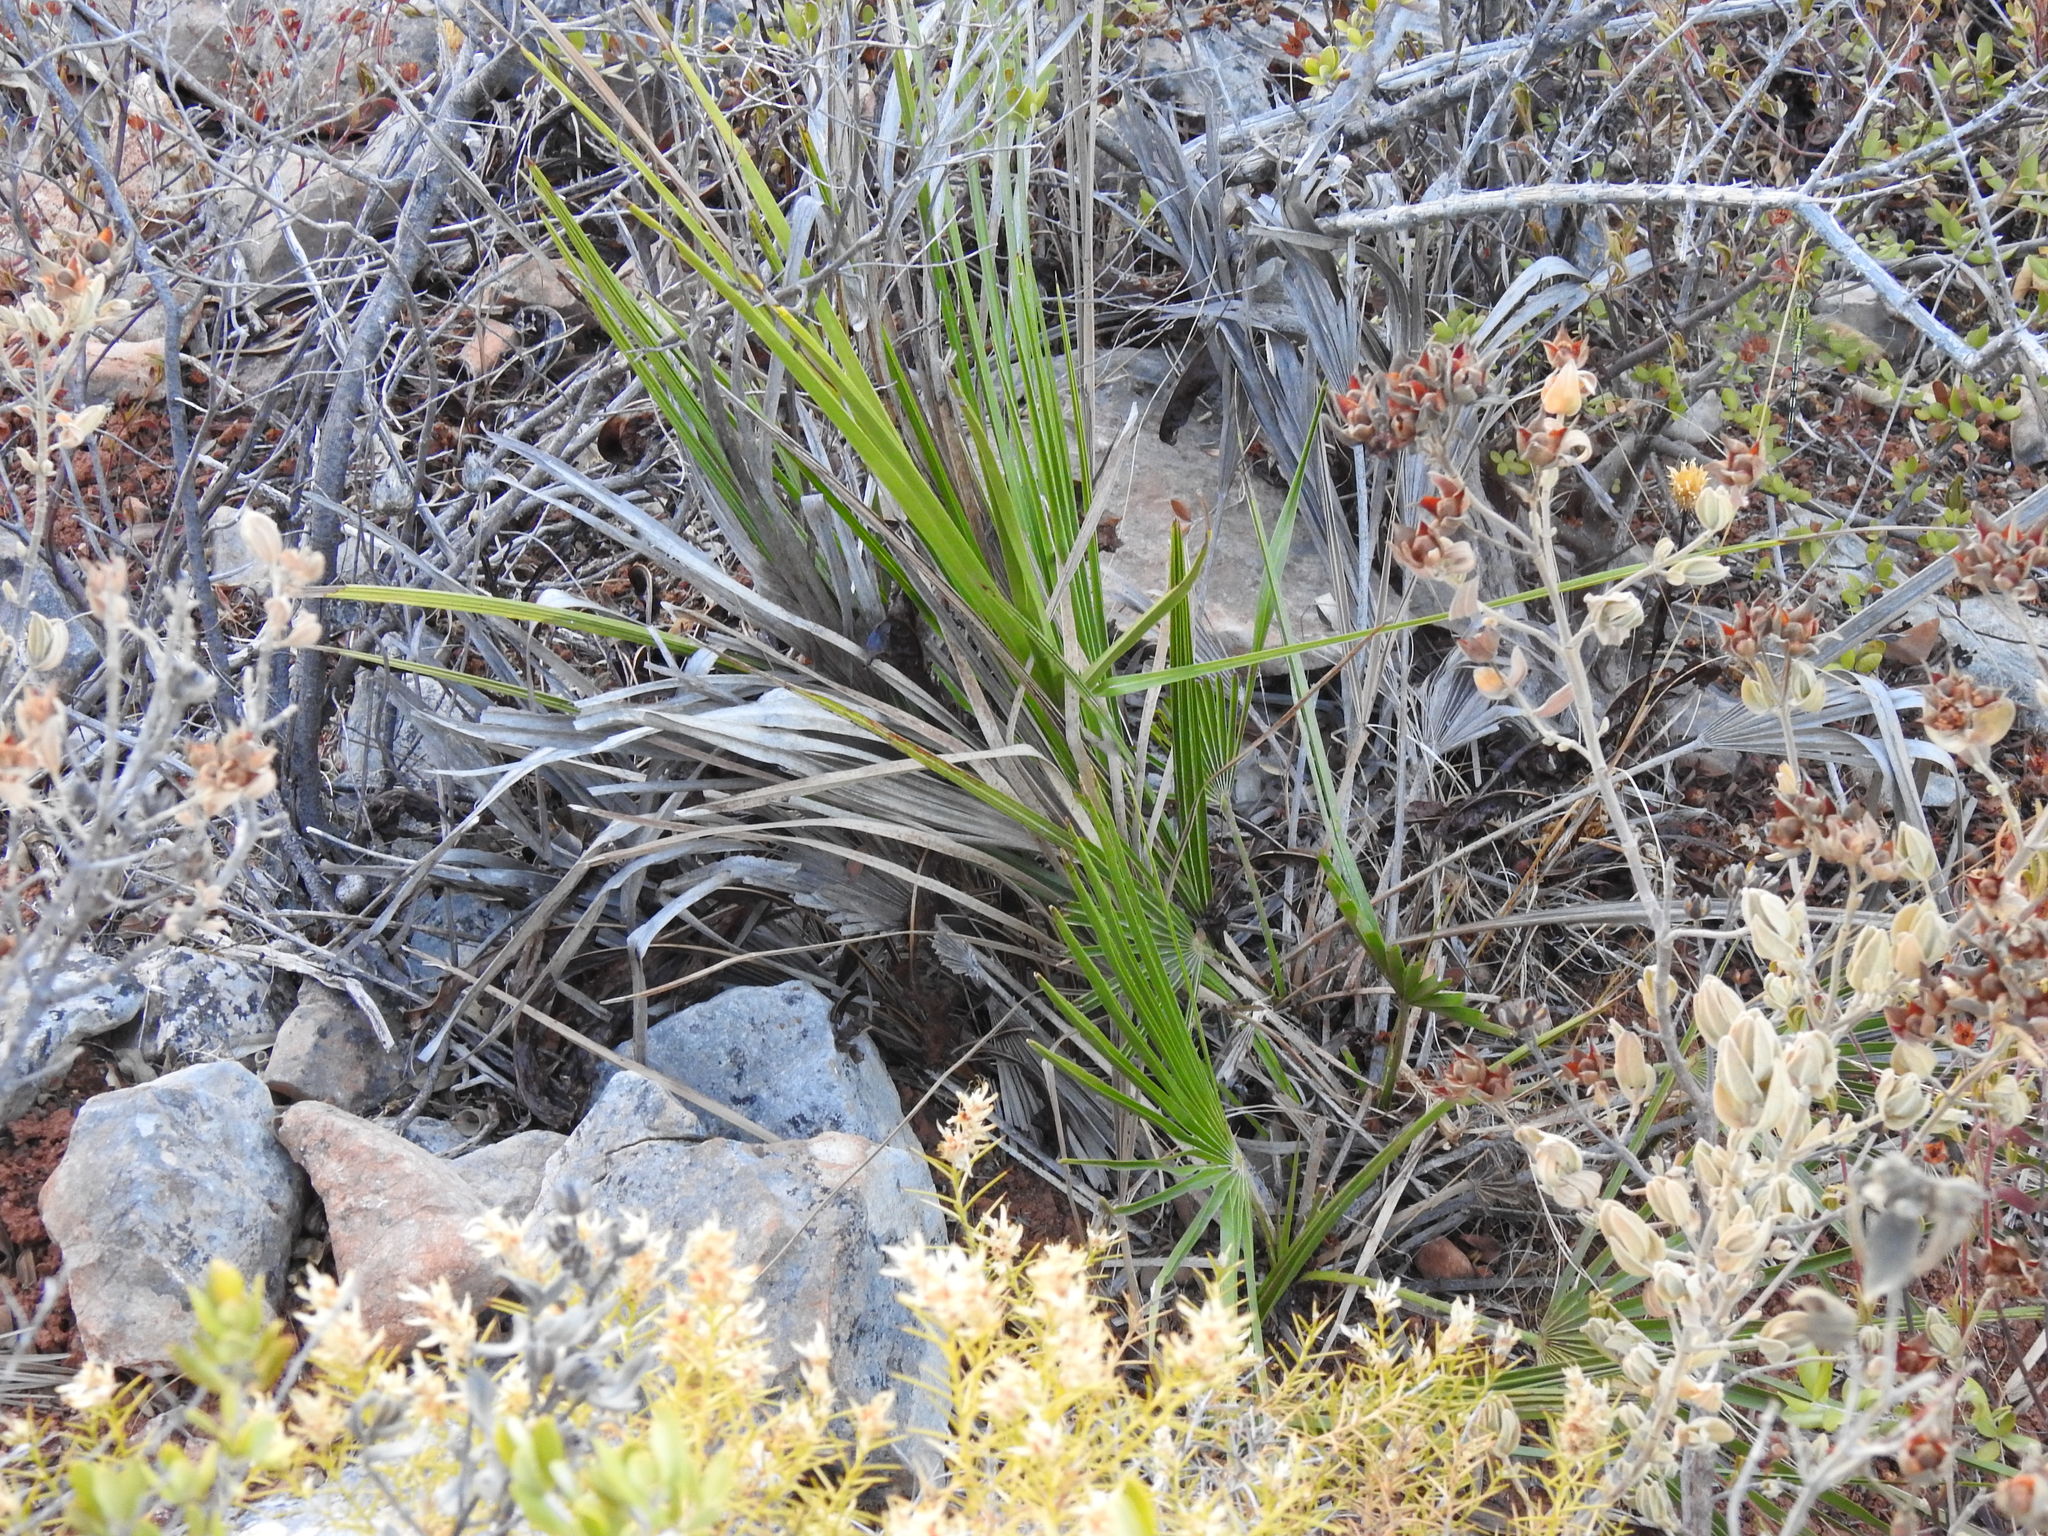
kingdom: Plantae
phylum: Tracheophyta
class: Liliopsida
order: Arecales
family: Arecaceae
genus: Chamaerops
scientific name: Chamaerops humilis
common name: Dwarf fan palm
